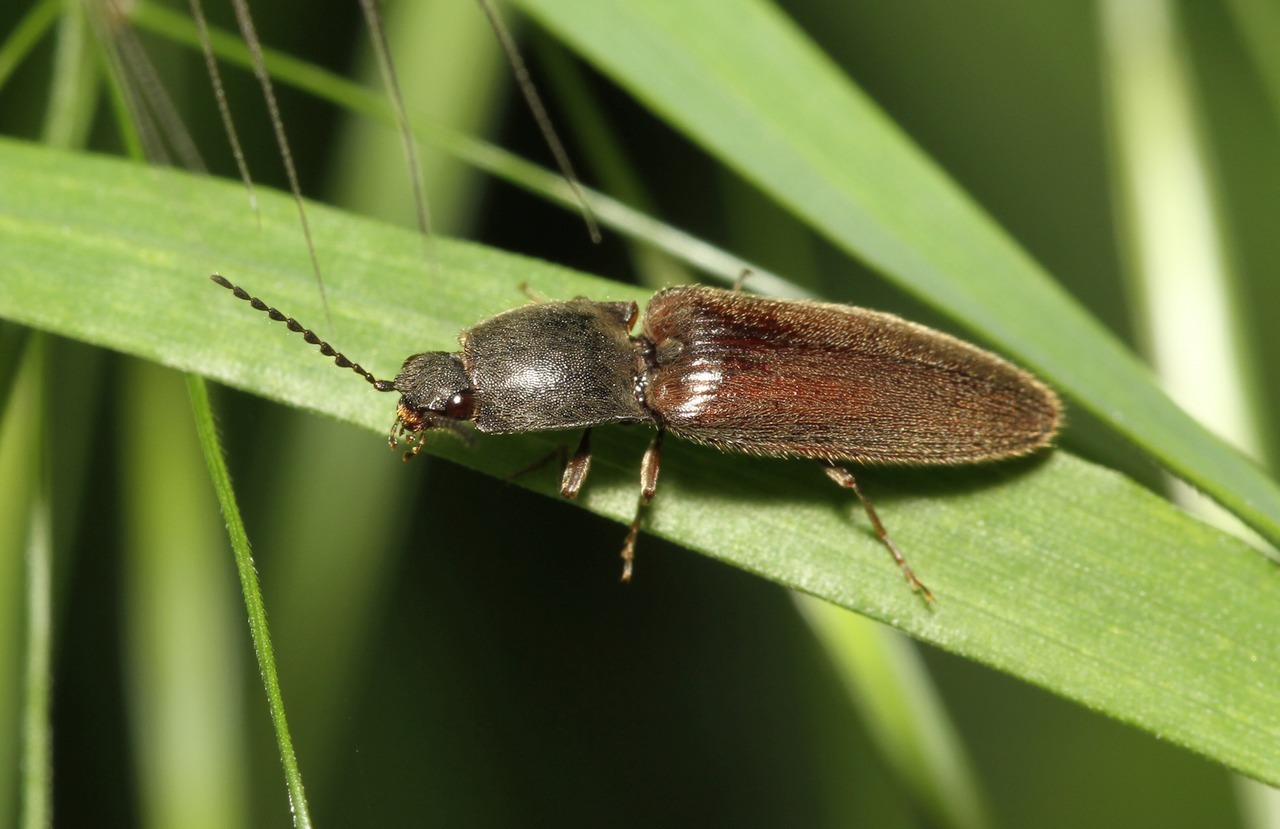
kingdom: Animalia
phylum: Arthropoda
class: Insecta
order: Coleoptera
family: Elateridae
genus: Athous
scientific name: Athous haemorrhoidalis
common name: Red-brown click beetle
